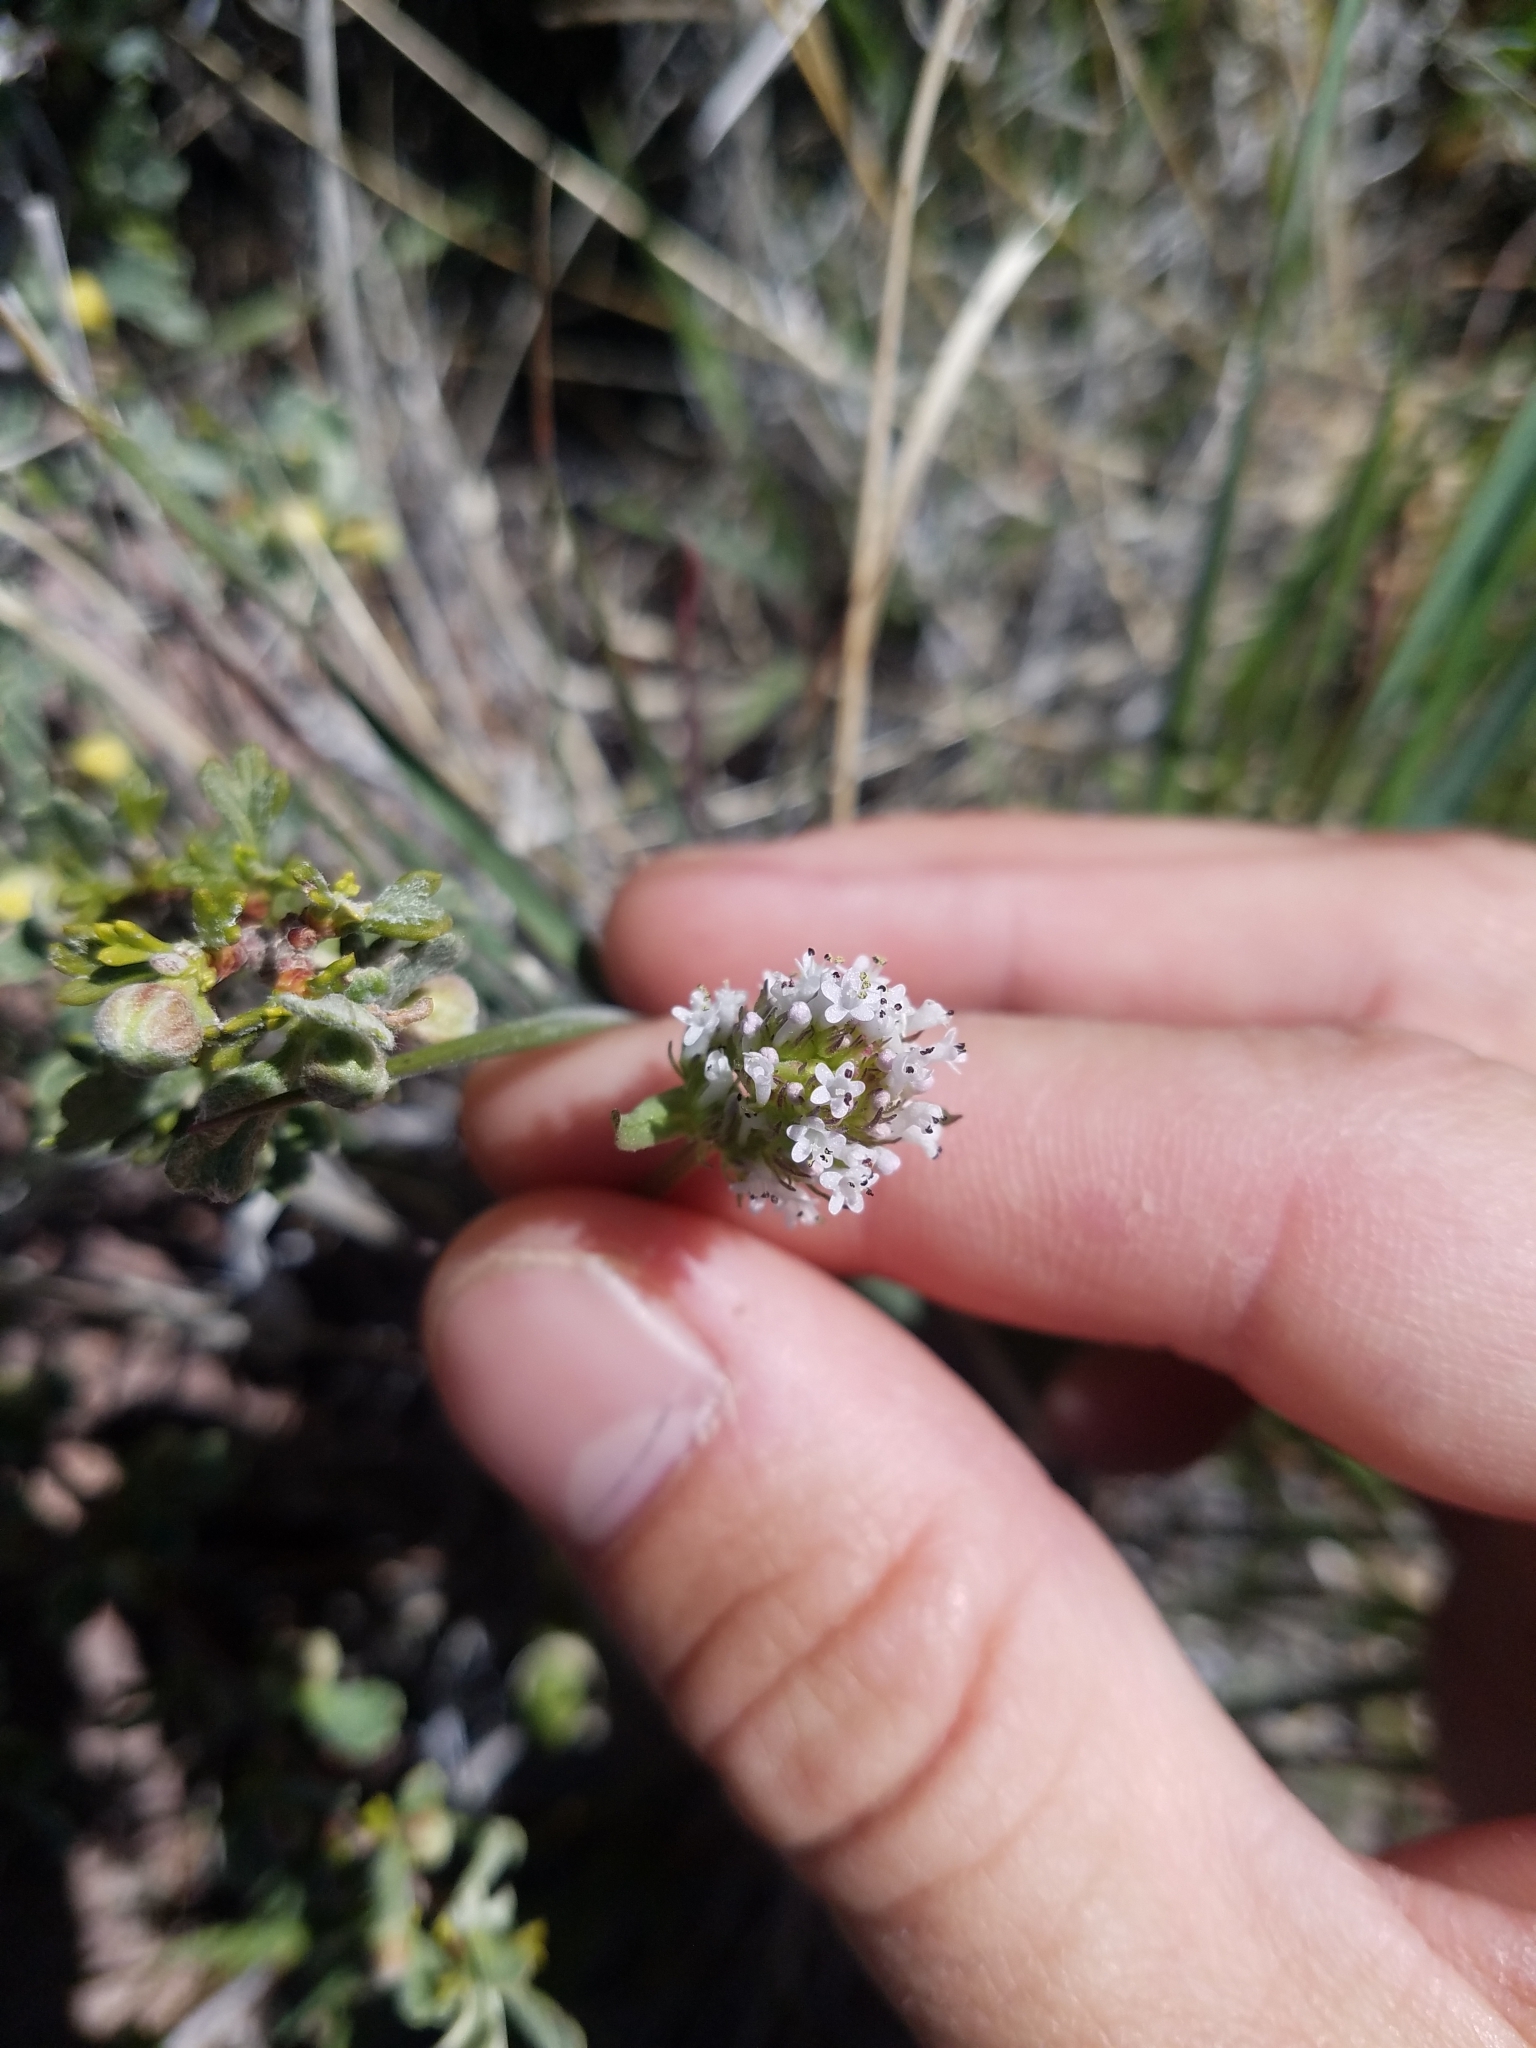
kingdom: Plantae
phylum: Tracheophyta
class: Magnoliopsida
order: Dipsacales
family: Caprifoliaceae
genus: Plectritis
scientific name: Plectritis macroptera
